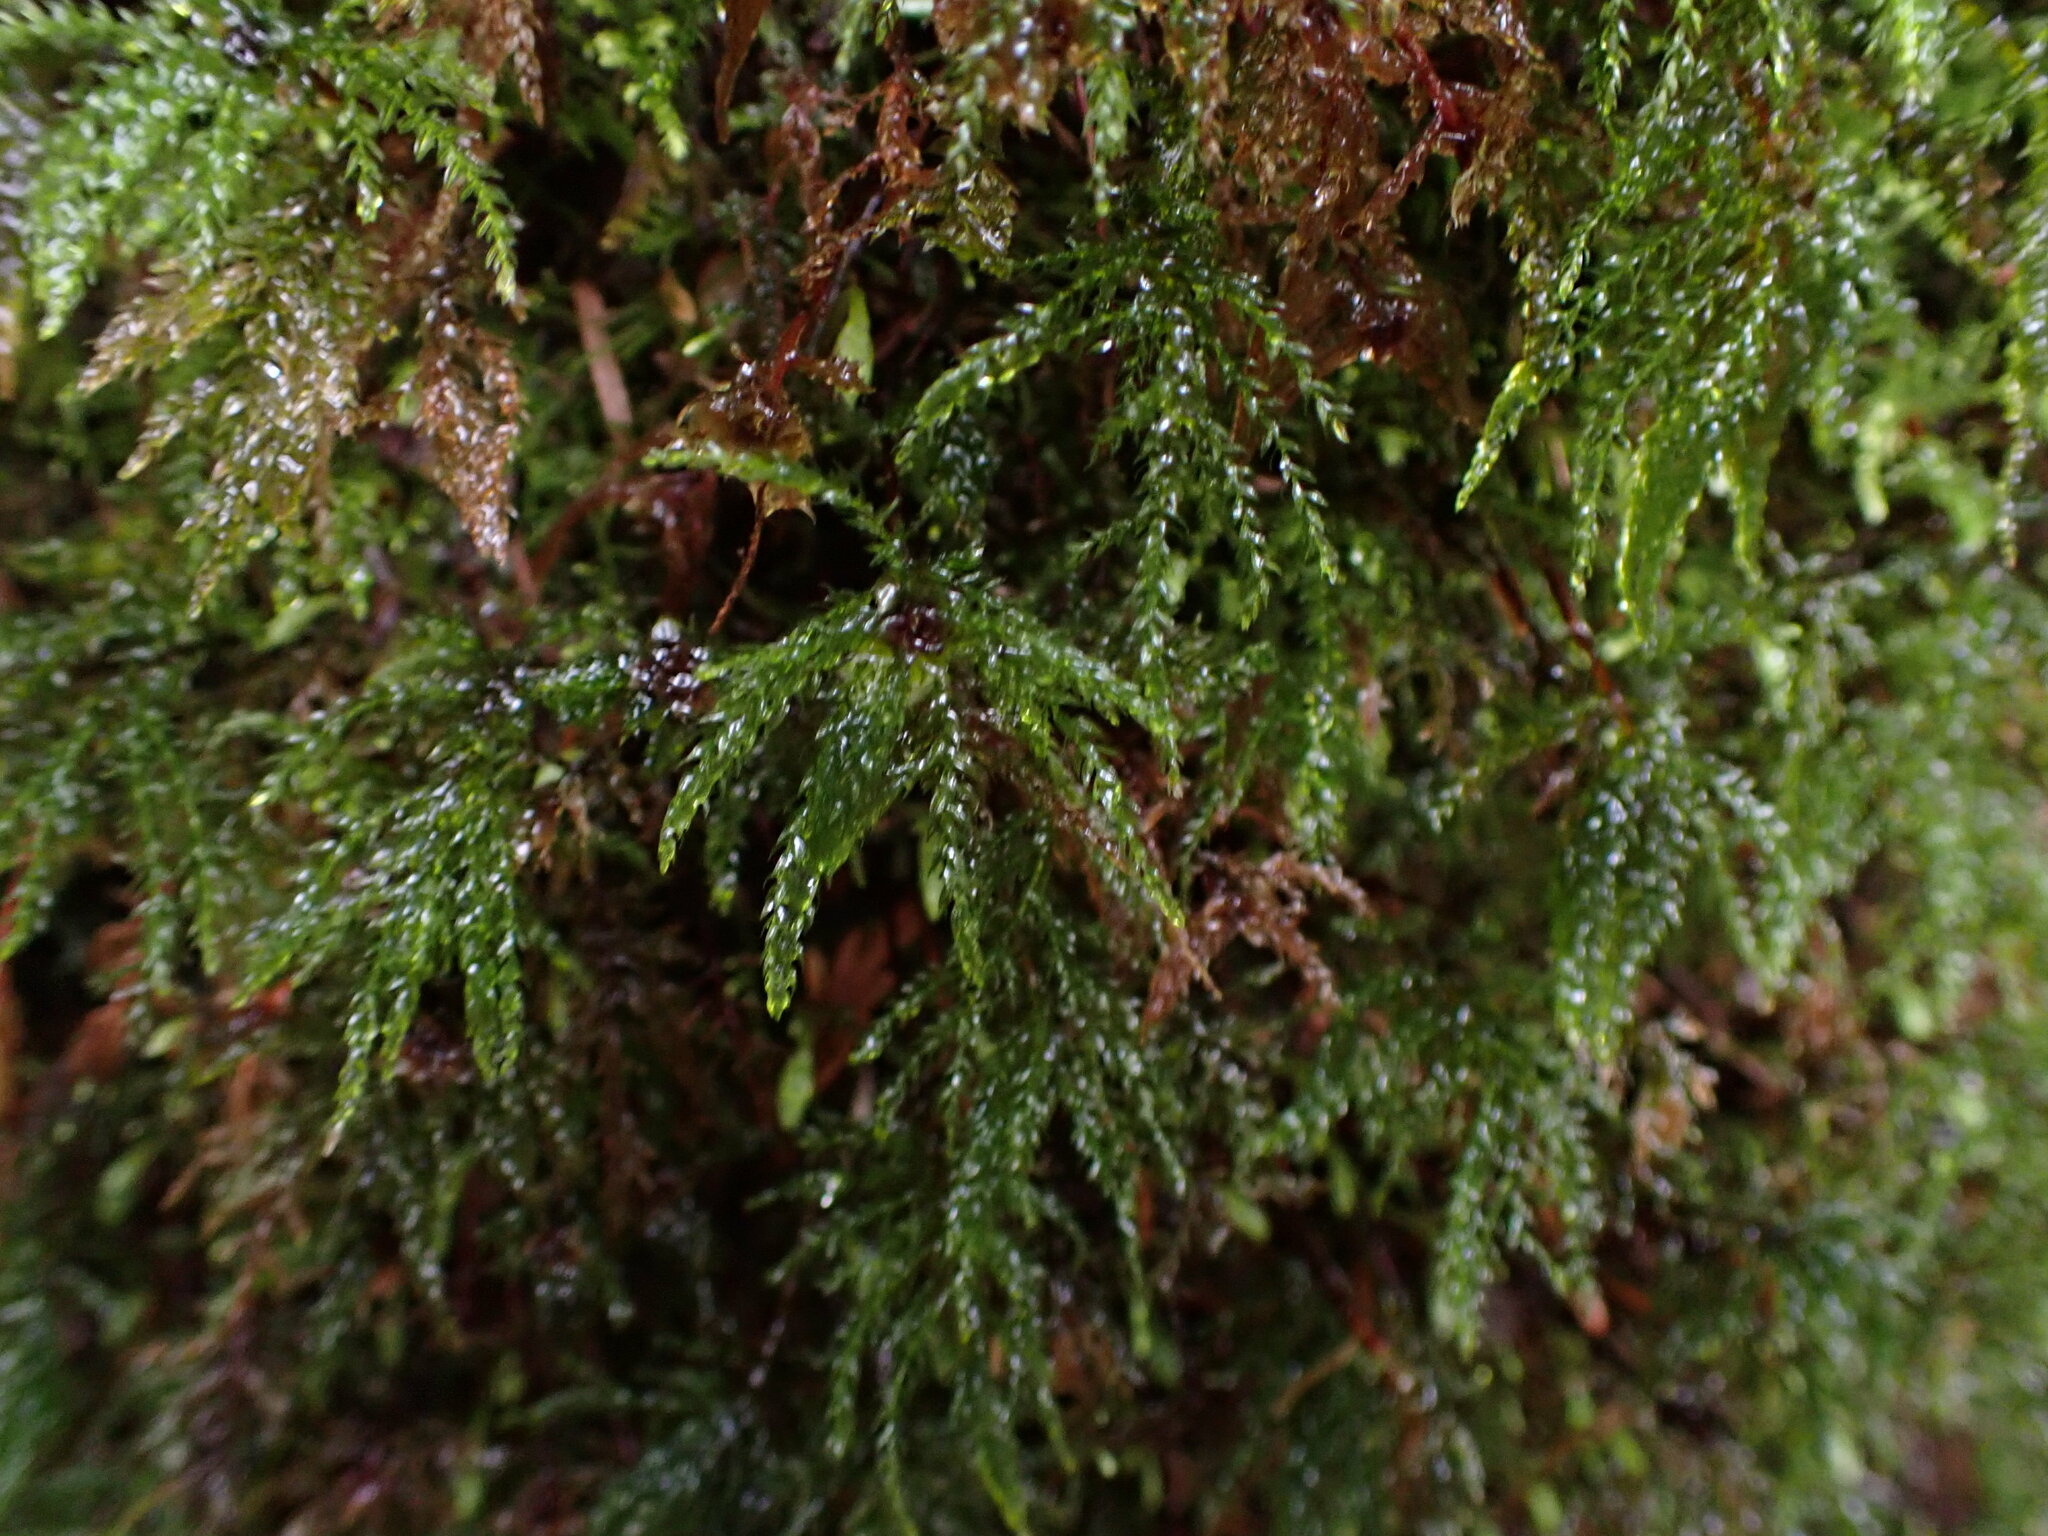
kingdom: Plantae
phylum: Bryophyta
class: Bryopsida
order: Bryales
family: Mniaceae
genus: Leucolepis
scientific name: Leucolepis acanthoneura
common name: Leucolepis umbrella moss
